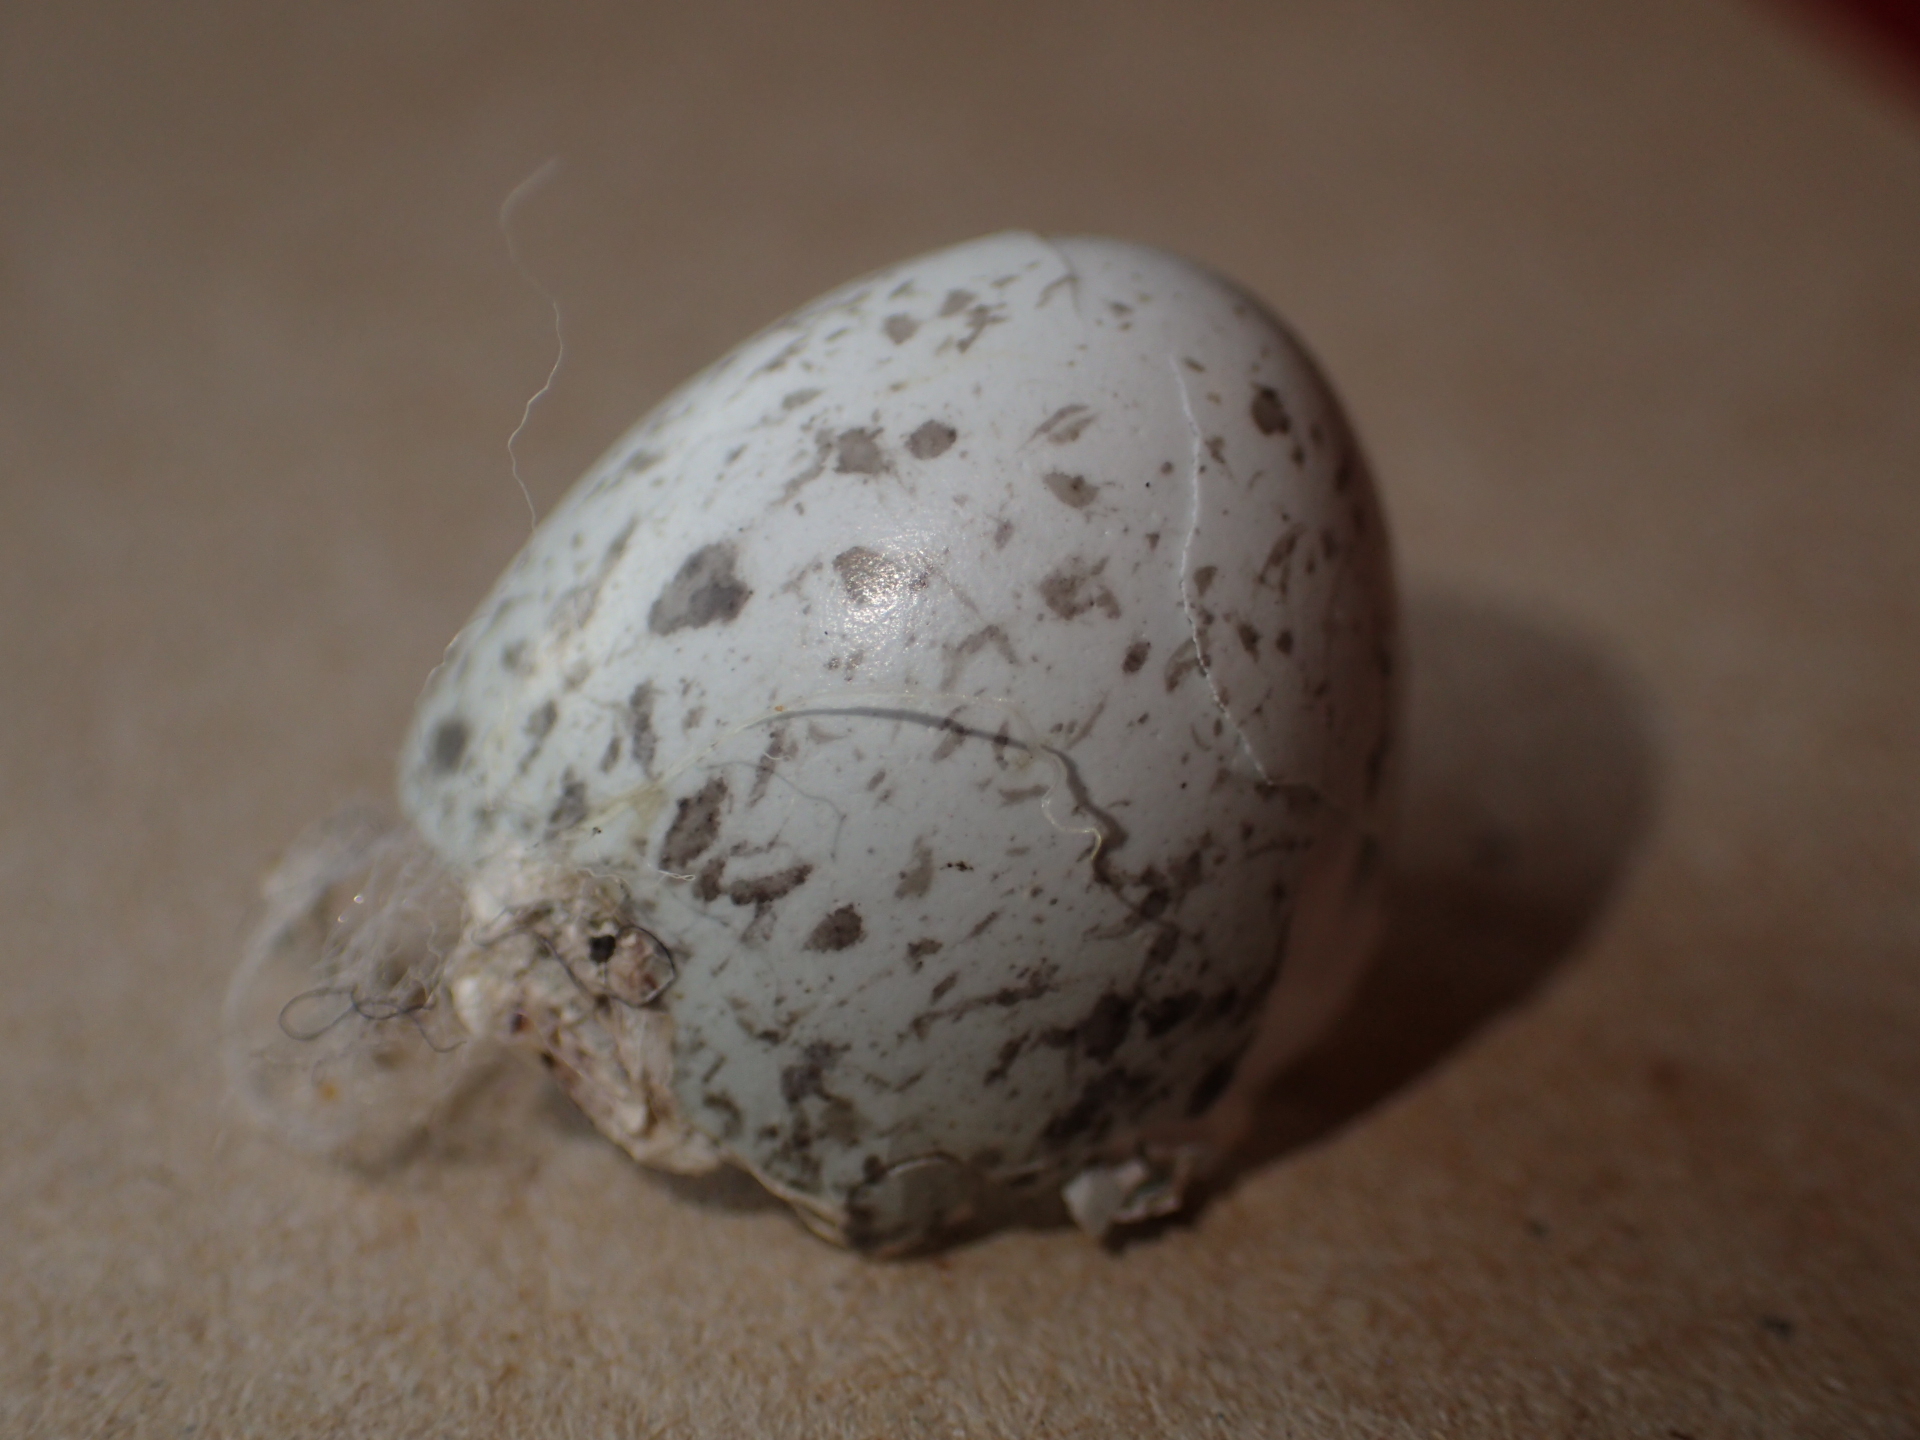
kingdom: Animalia
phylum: Chordata
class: Aves
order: Passeriformes
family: Passeridae
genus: Passer
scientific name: Passer domesticus
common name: House sparrow
